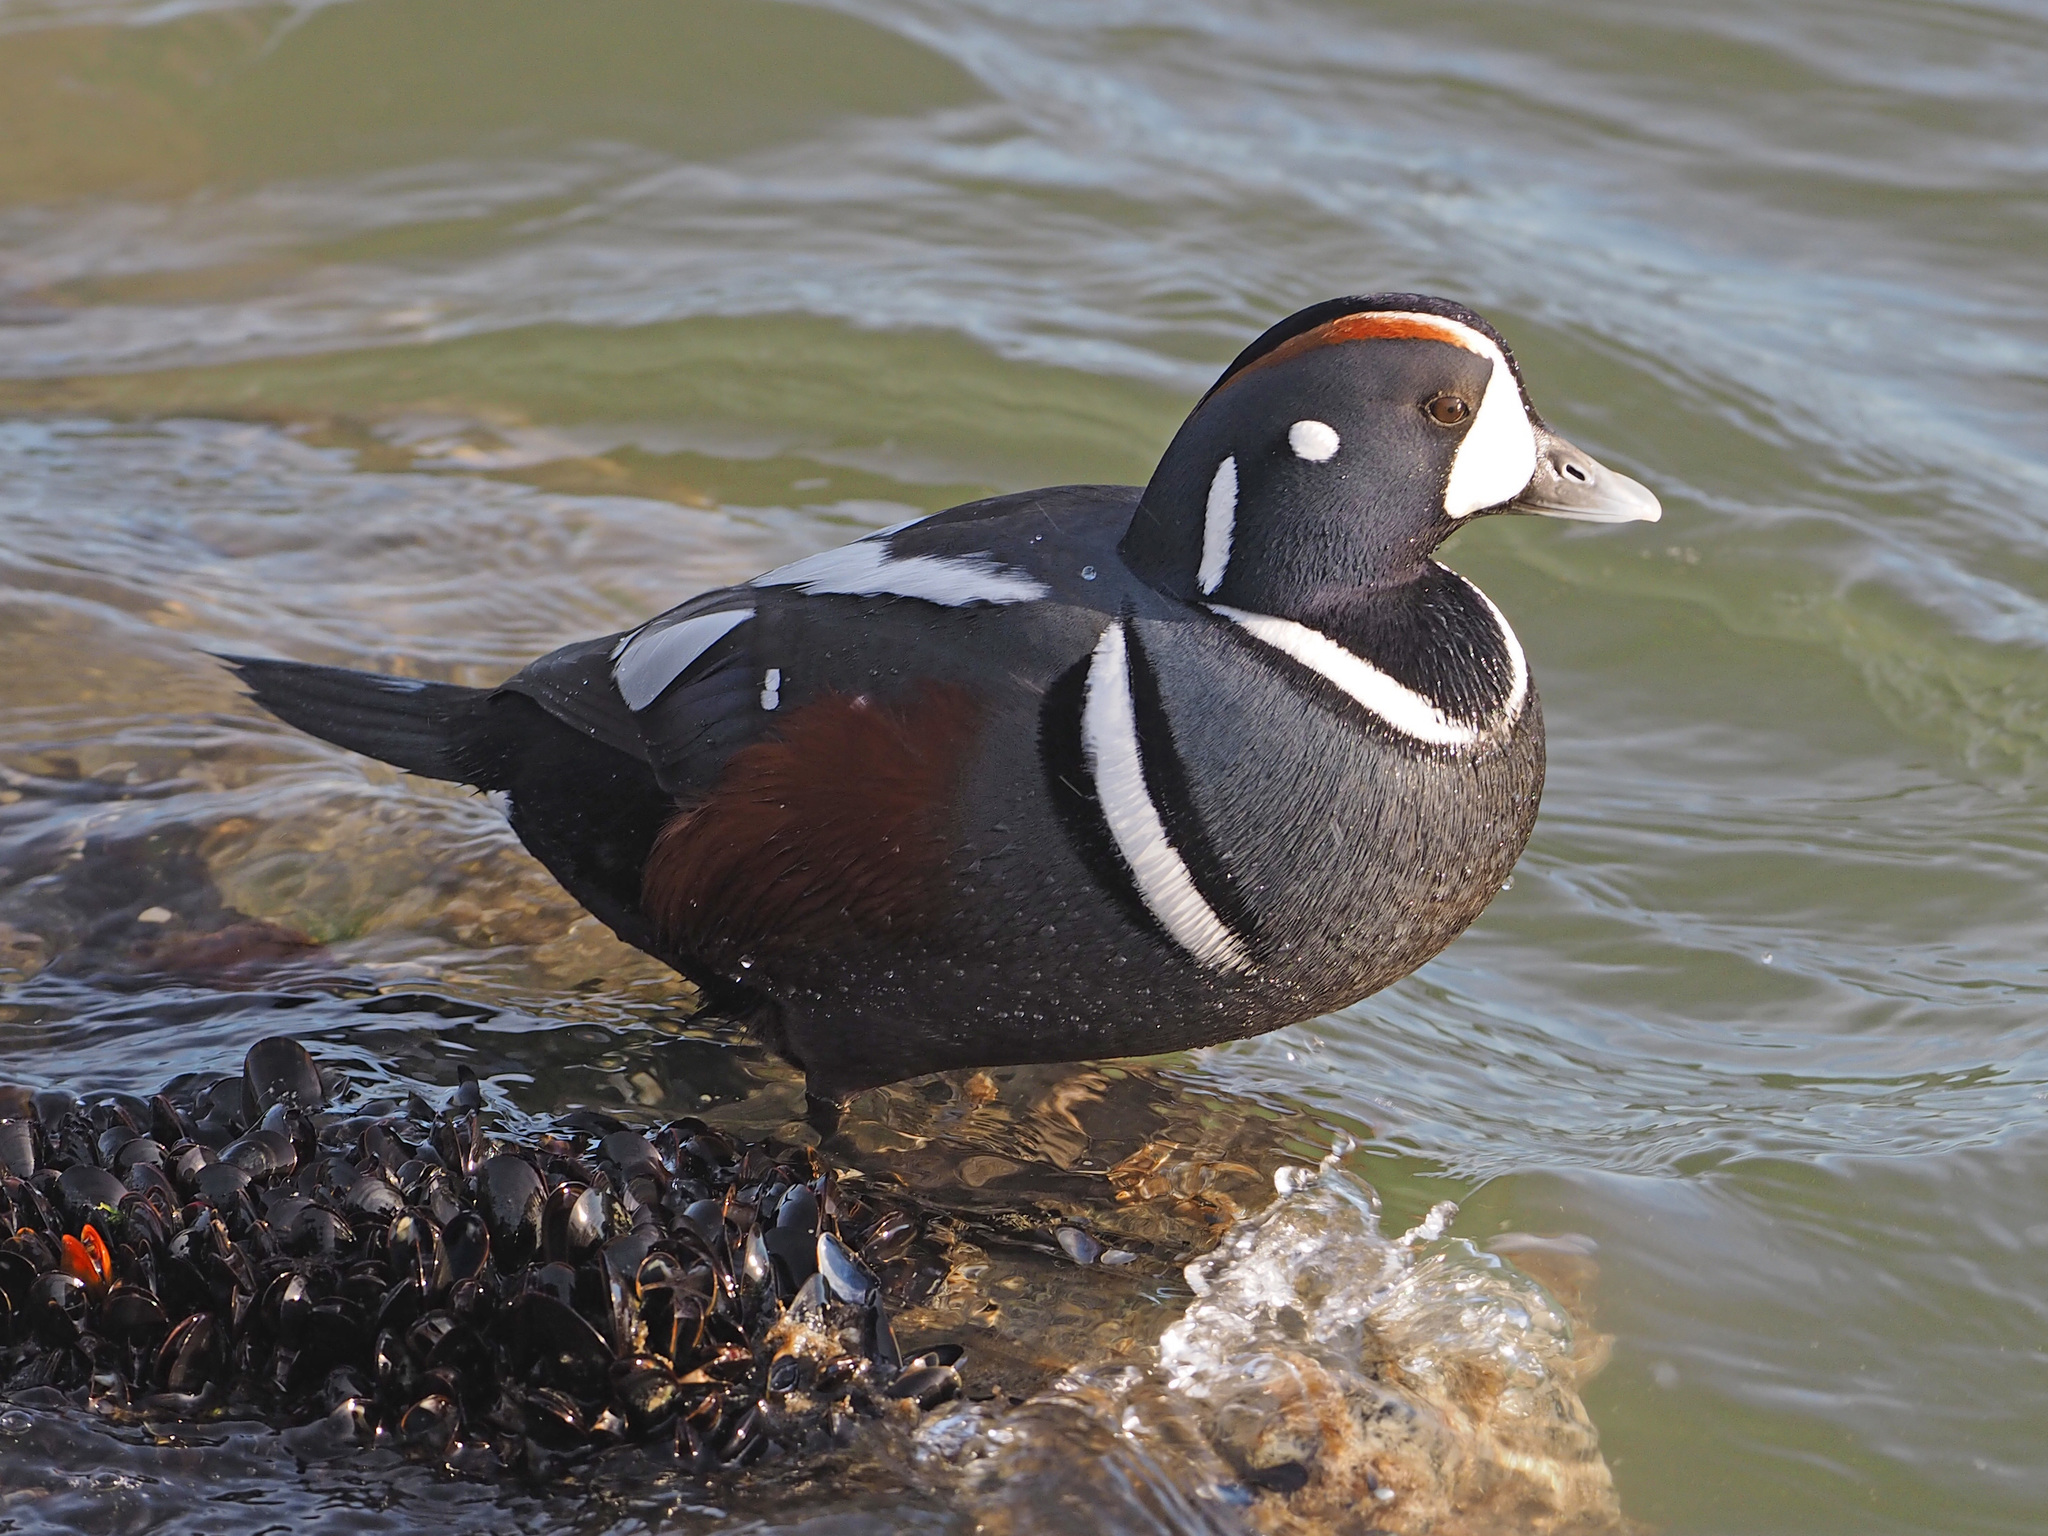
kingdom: Animalia
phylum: Chordata
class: Aves
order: Anseriformes
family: Anatidae
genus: Histrionicus
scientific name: Histrionicus histrionicus
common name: Harlequin duck
